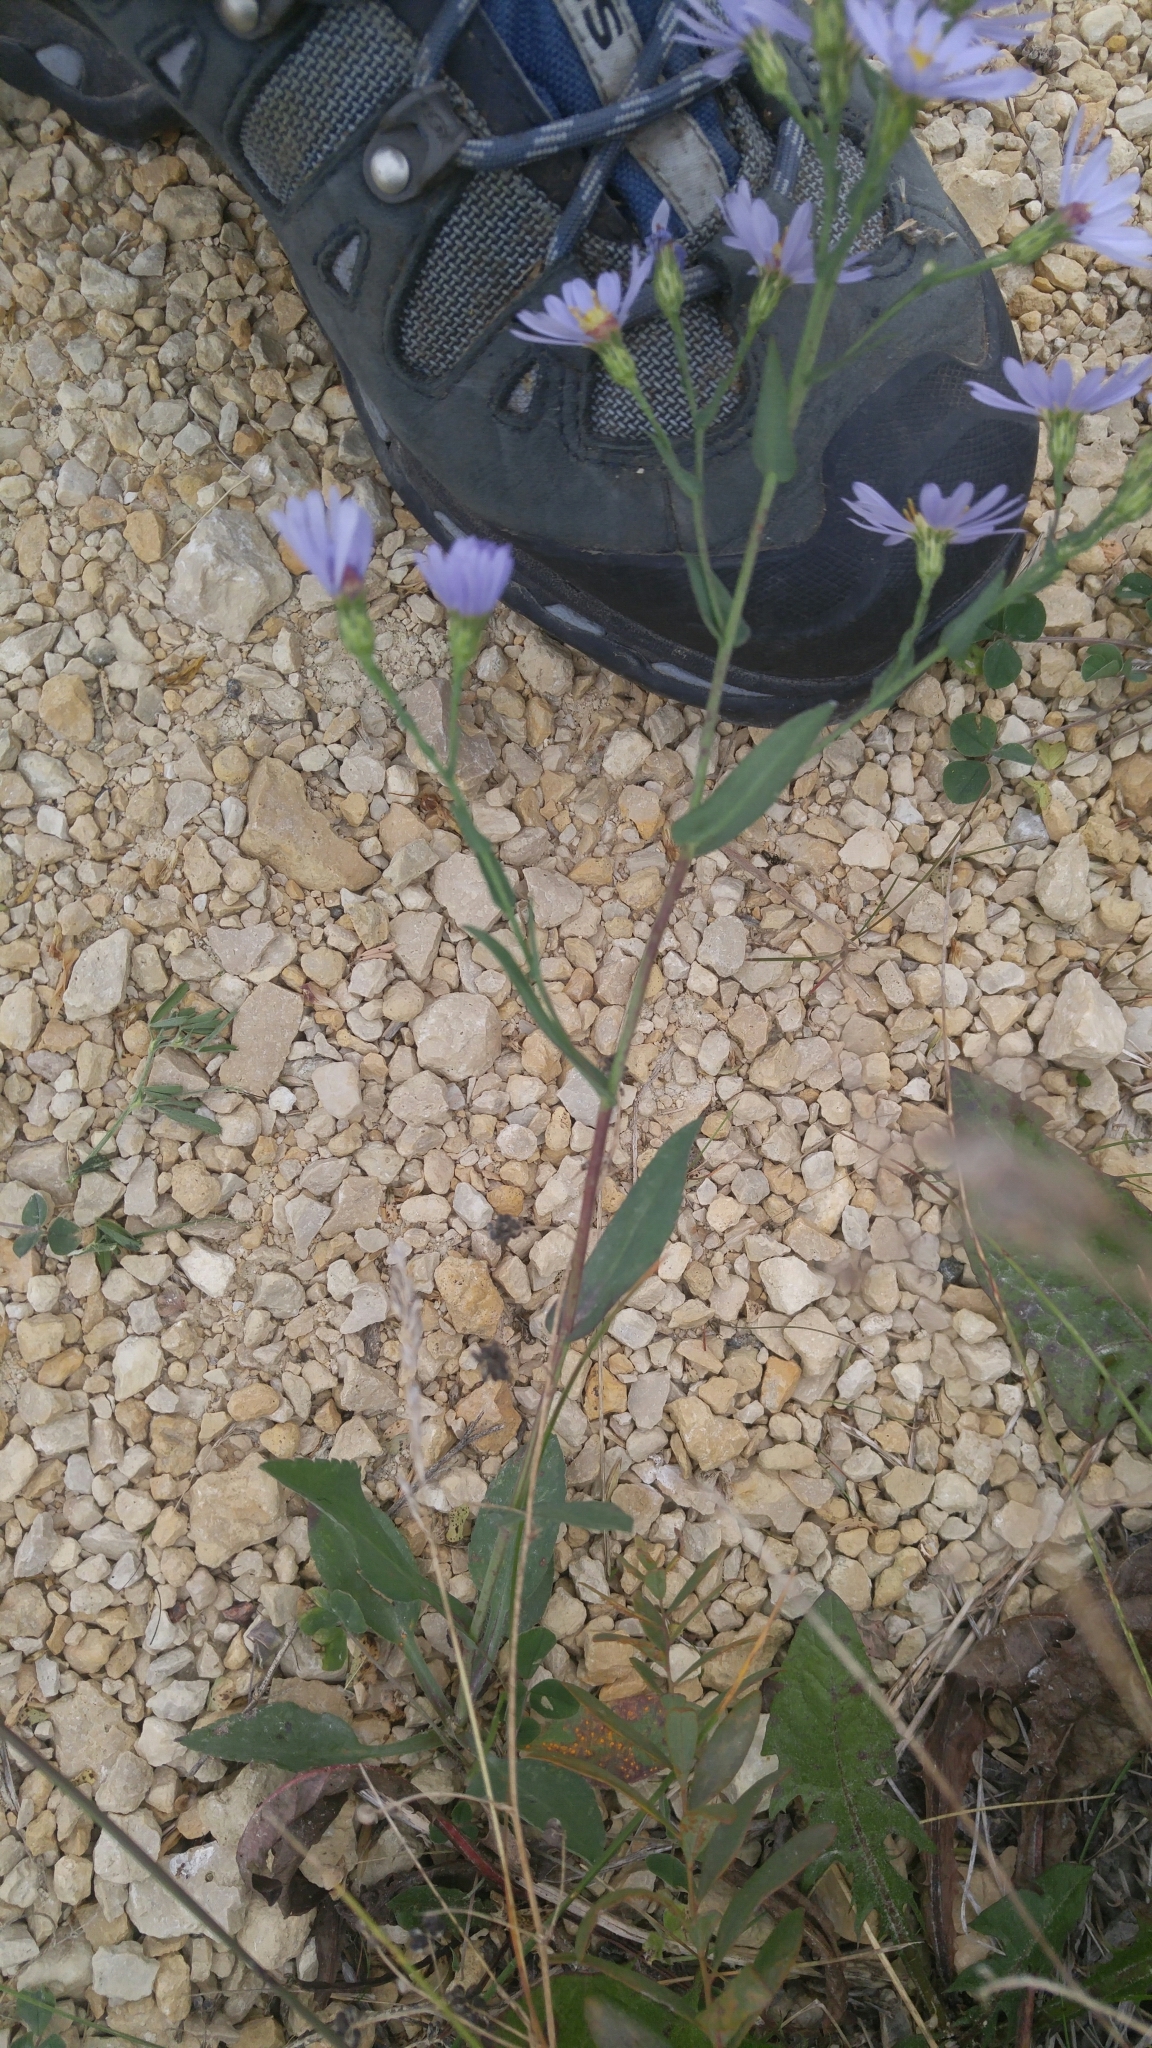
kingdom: Plantae
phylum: Tracheophyta
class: Magnoliopsida
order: Asterales
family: Asteraceae
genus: Symphyotrichum
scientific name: Symphyotrichum laeve
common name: Glaucous aster
